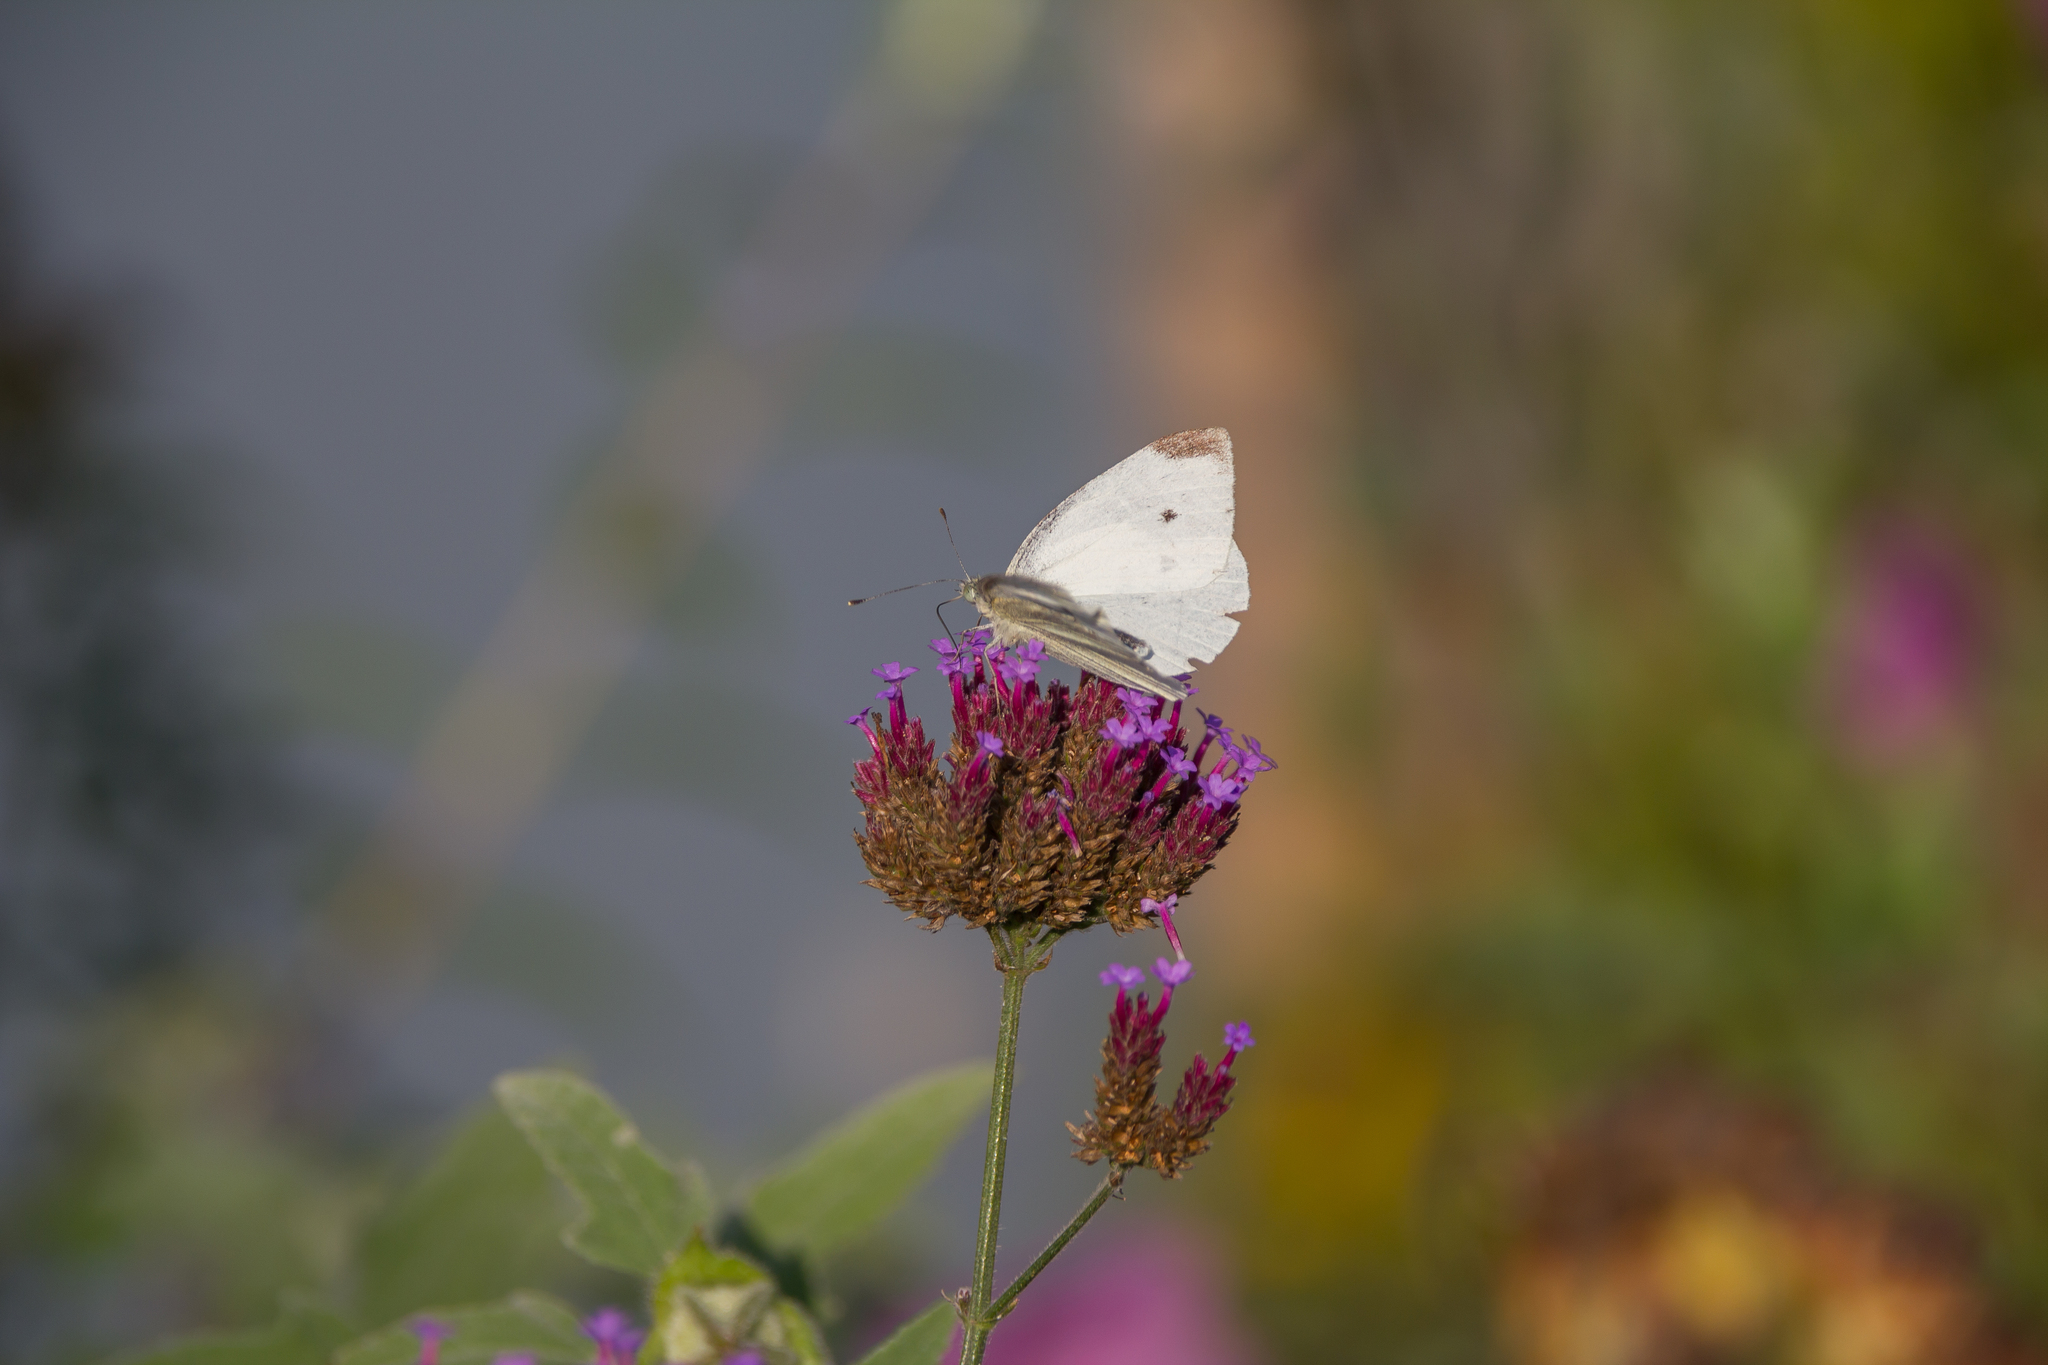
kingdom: Animalia
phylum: Arthropoda
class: Insecta
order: Lepidoptera
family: Pieridae
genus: Pieris
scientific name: Pieris rapae
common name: Small white
